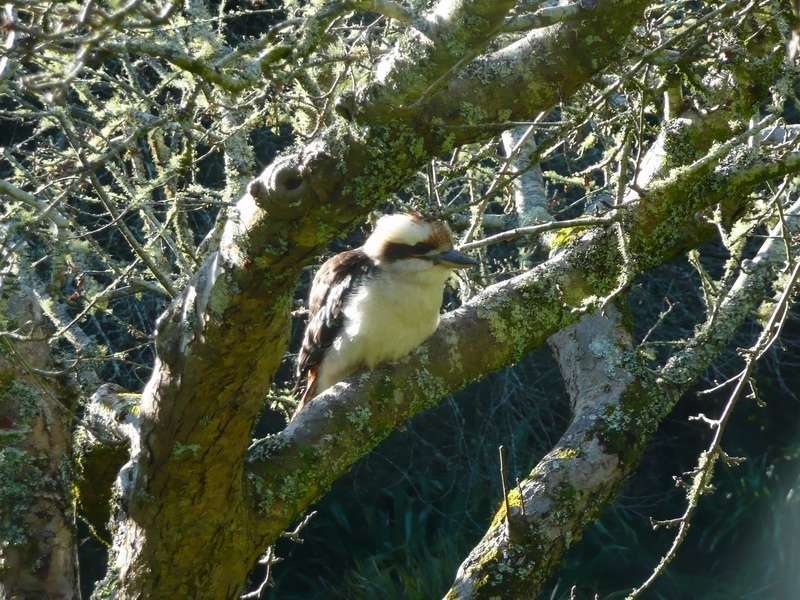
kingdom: Animalia
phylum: Chordata
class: Aves
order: Coraciiformes
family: Alcedinidae
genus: Dacelo
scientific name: Dacelo novaeguineae
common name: Laughing kookaburra
